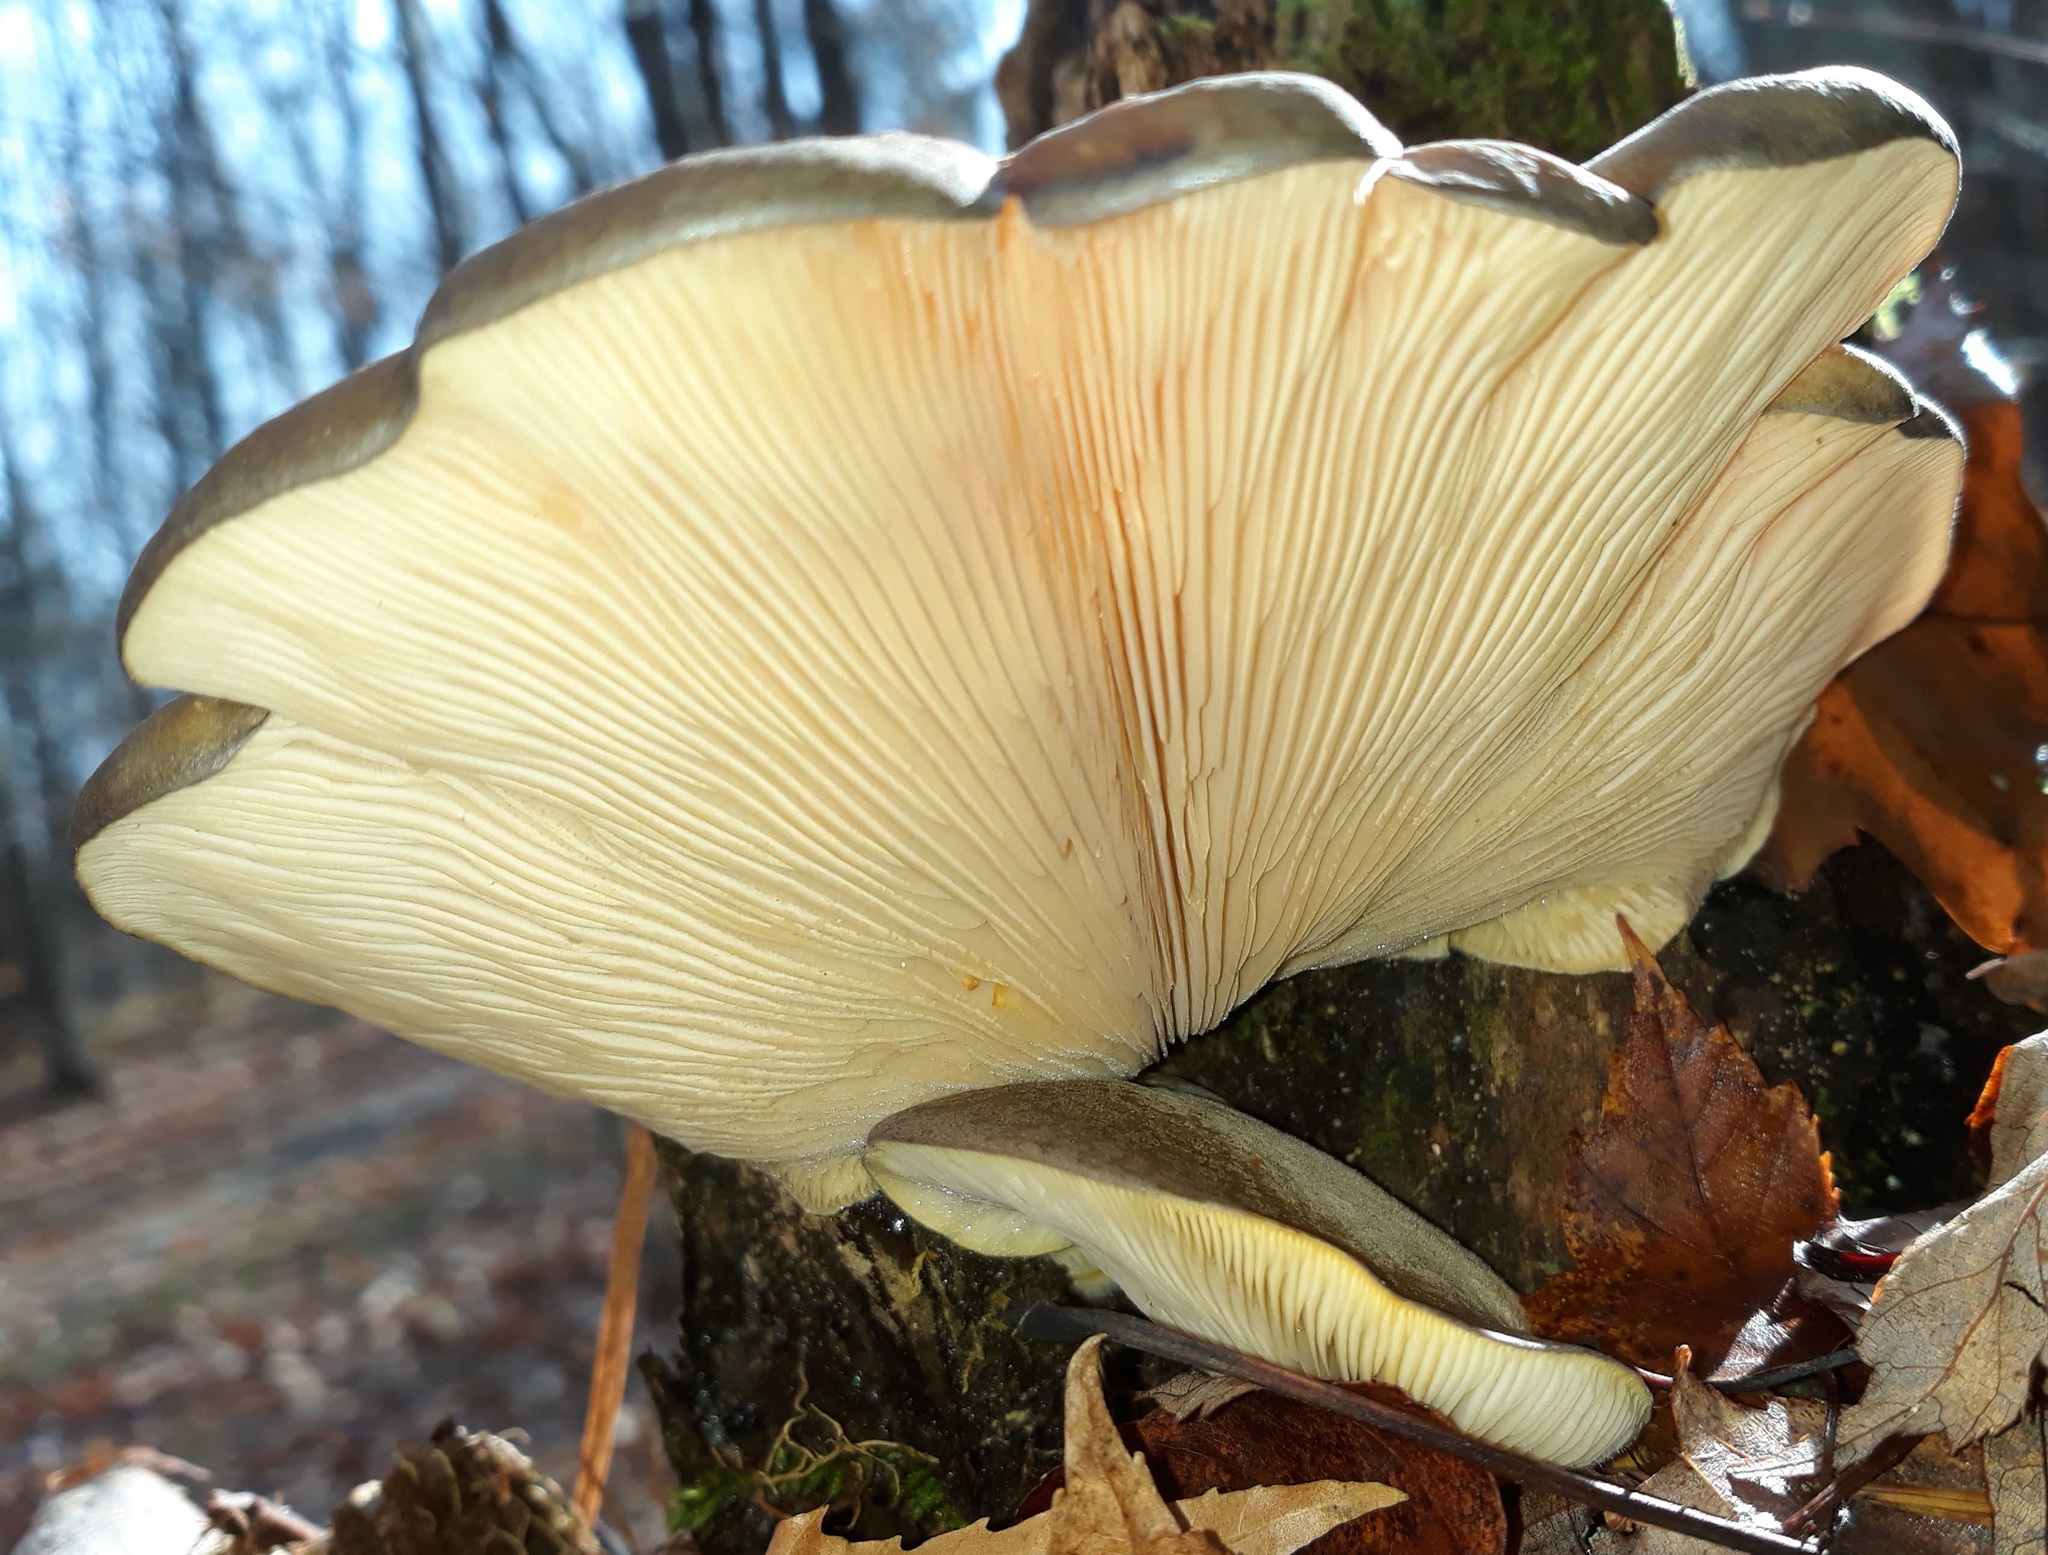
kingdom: Fungi
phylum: Basidiomycota
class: Agaricomycetes
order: Agaricales
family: Sarcomyxaceae
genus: Sarcomyxa
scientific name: Sarcomyxa serotina
